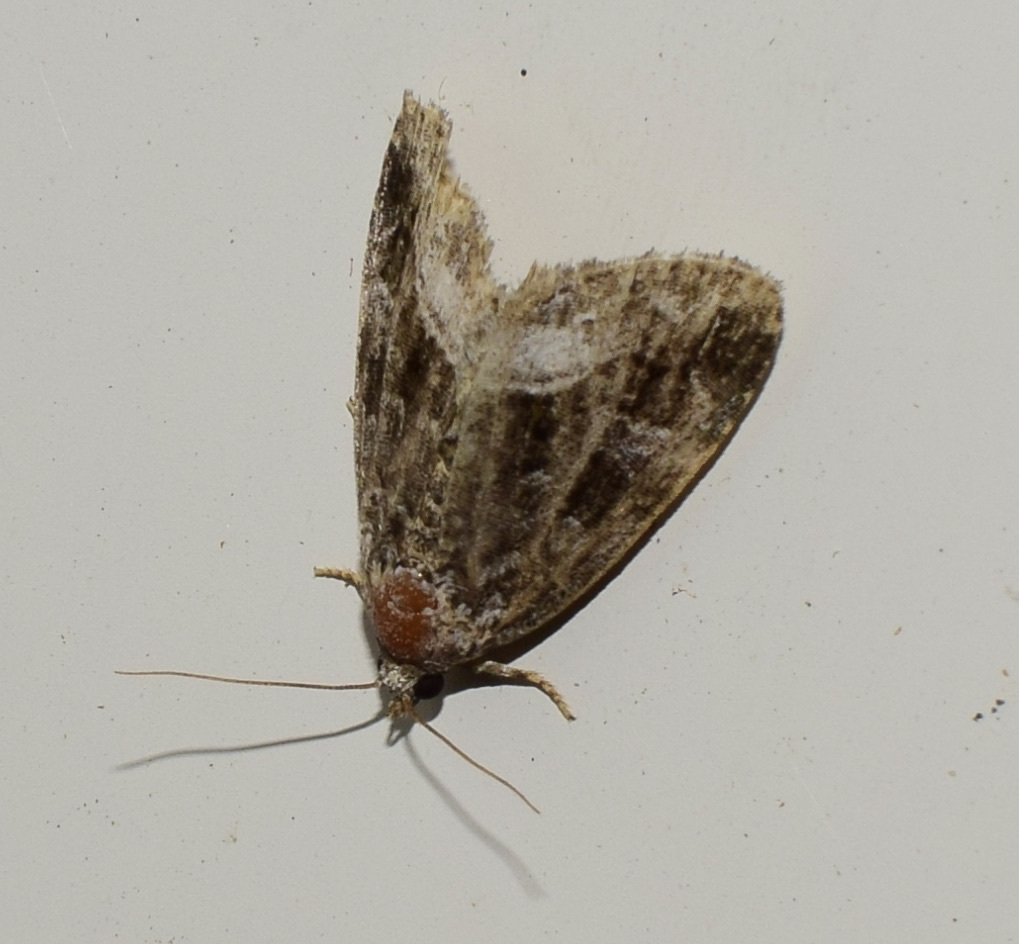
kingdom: Animalia
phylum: Arthropoda
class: Insecta
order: Lepidoptera
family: Noctuidae
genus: Protodeltote
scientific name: Protodeltote muscosula
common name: Large mossy glyph
